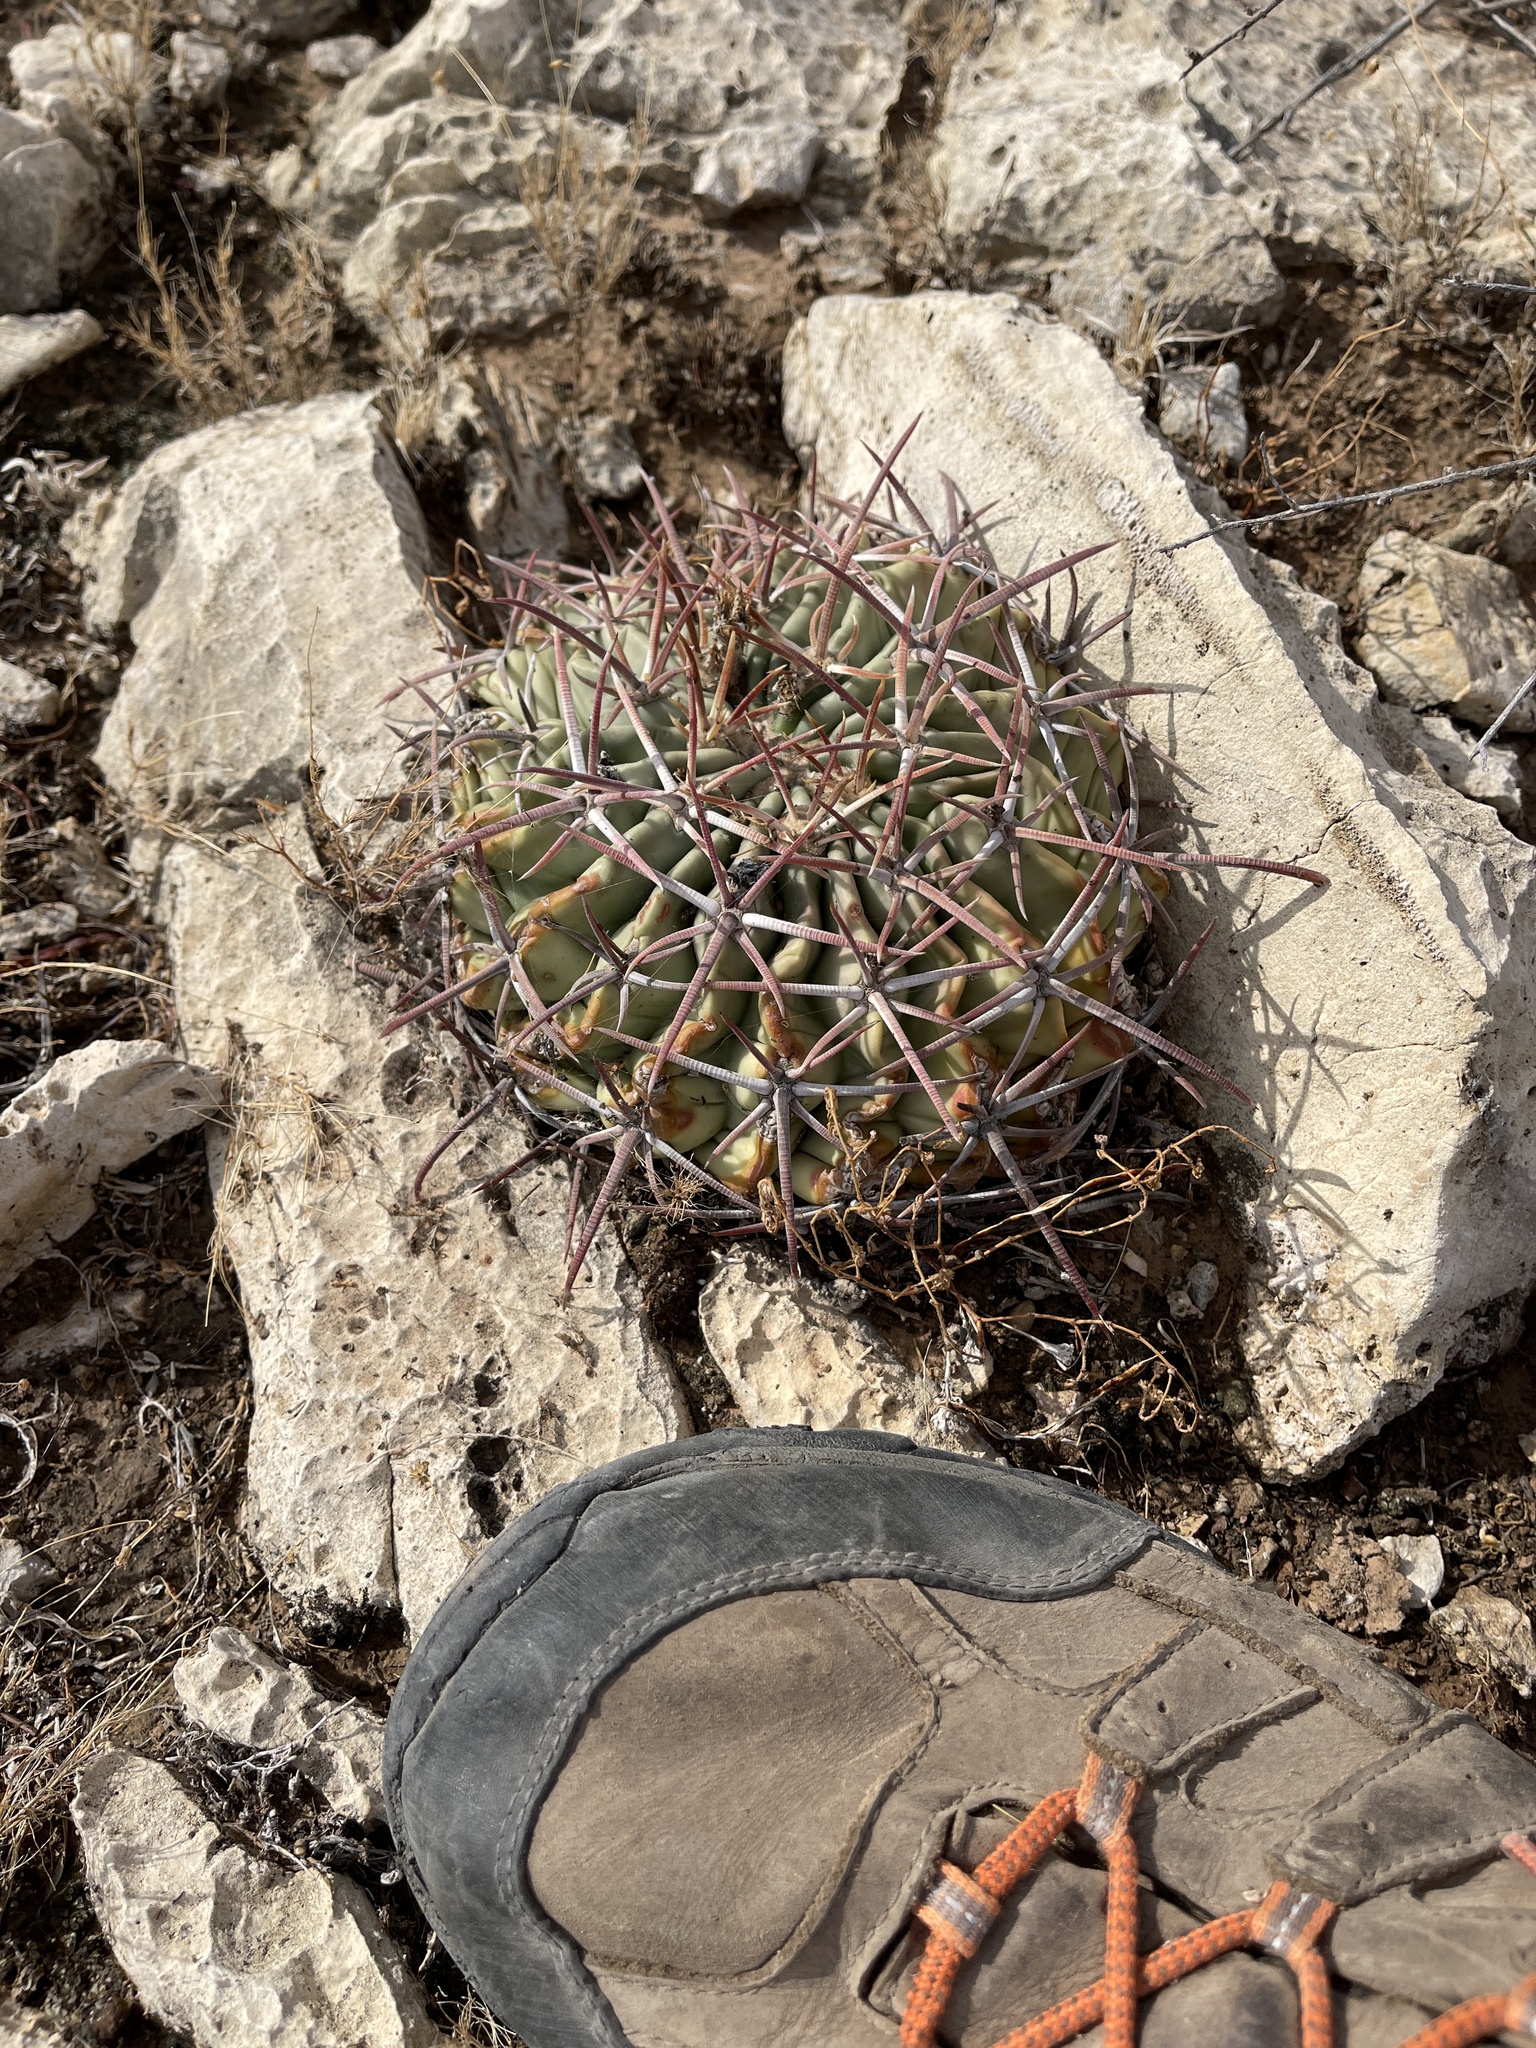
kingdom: Plantae
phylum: Tracheophyta
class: Magnoliopsida
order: Caryophyllales
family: Cactaceae
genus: Echinocactus
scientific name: Echinocactus texensis
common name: Devil's pincushion
